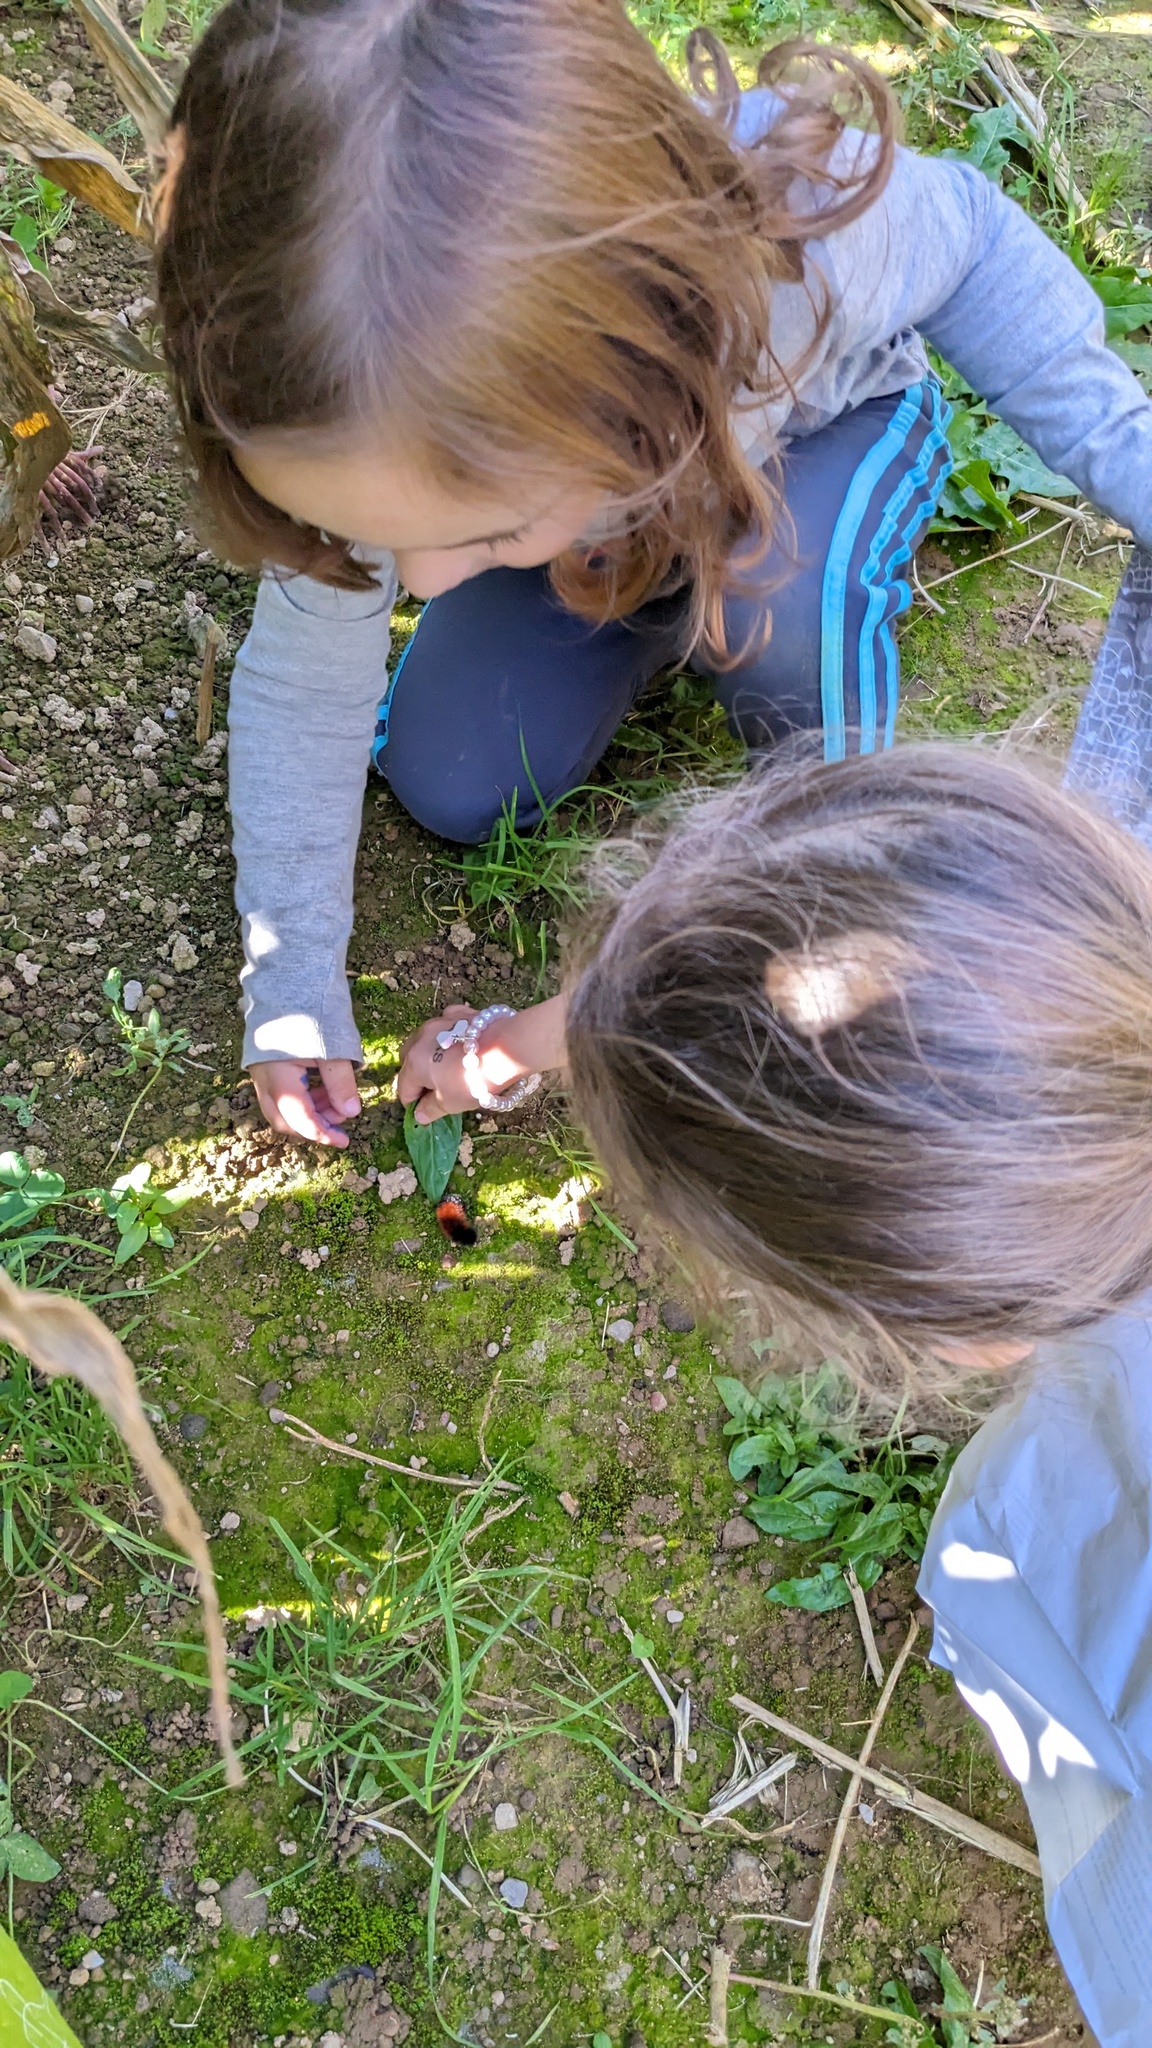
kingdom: Animalia
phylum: Arthropoda
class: Insecta
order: Lepidoptera
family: Erebidae
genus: Pyrrharctia
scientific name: Pyrrharctia isabella
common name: Isabella tiger moth
